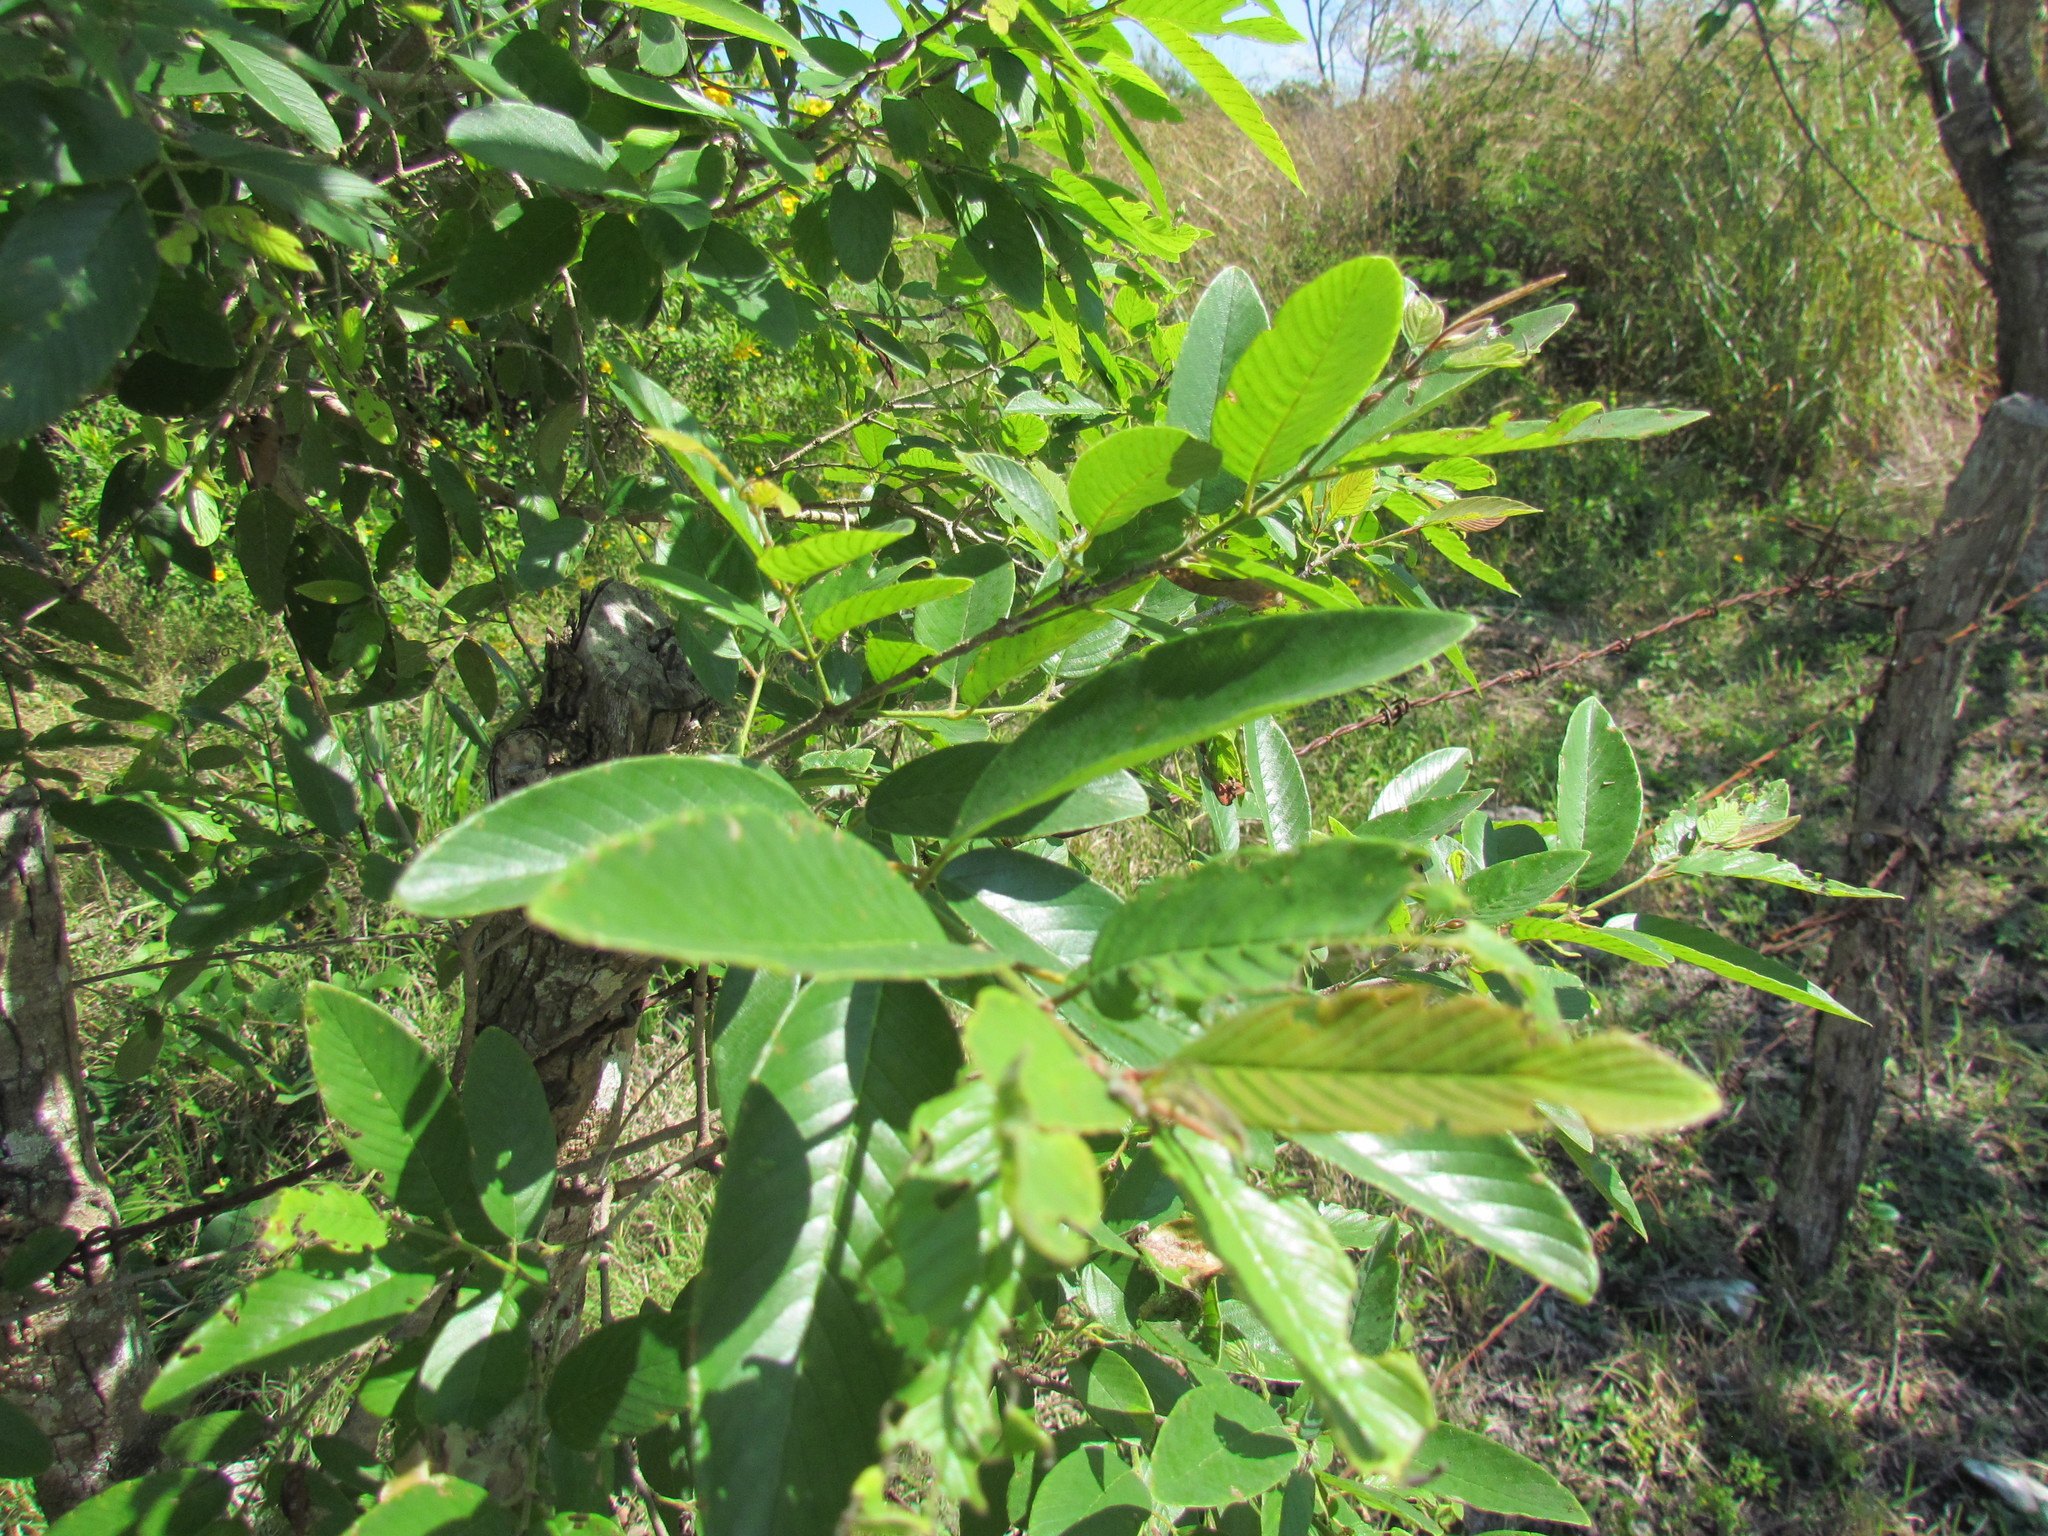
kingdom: Plantae
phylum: Tracheophyta
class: Magnoliopsida
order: Rosales
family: Rhamnaceae
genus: Karwinskia
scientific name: Karwinskia humboldtiana
